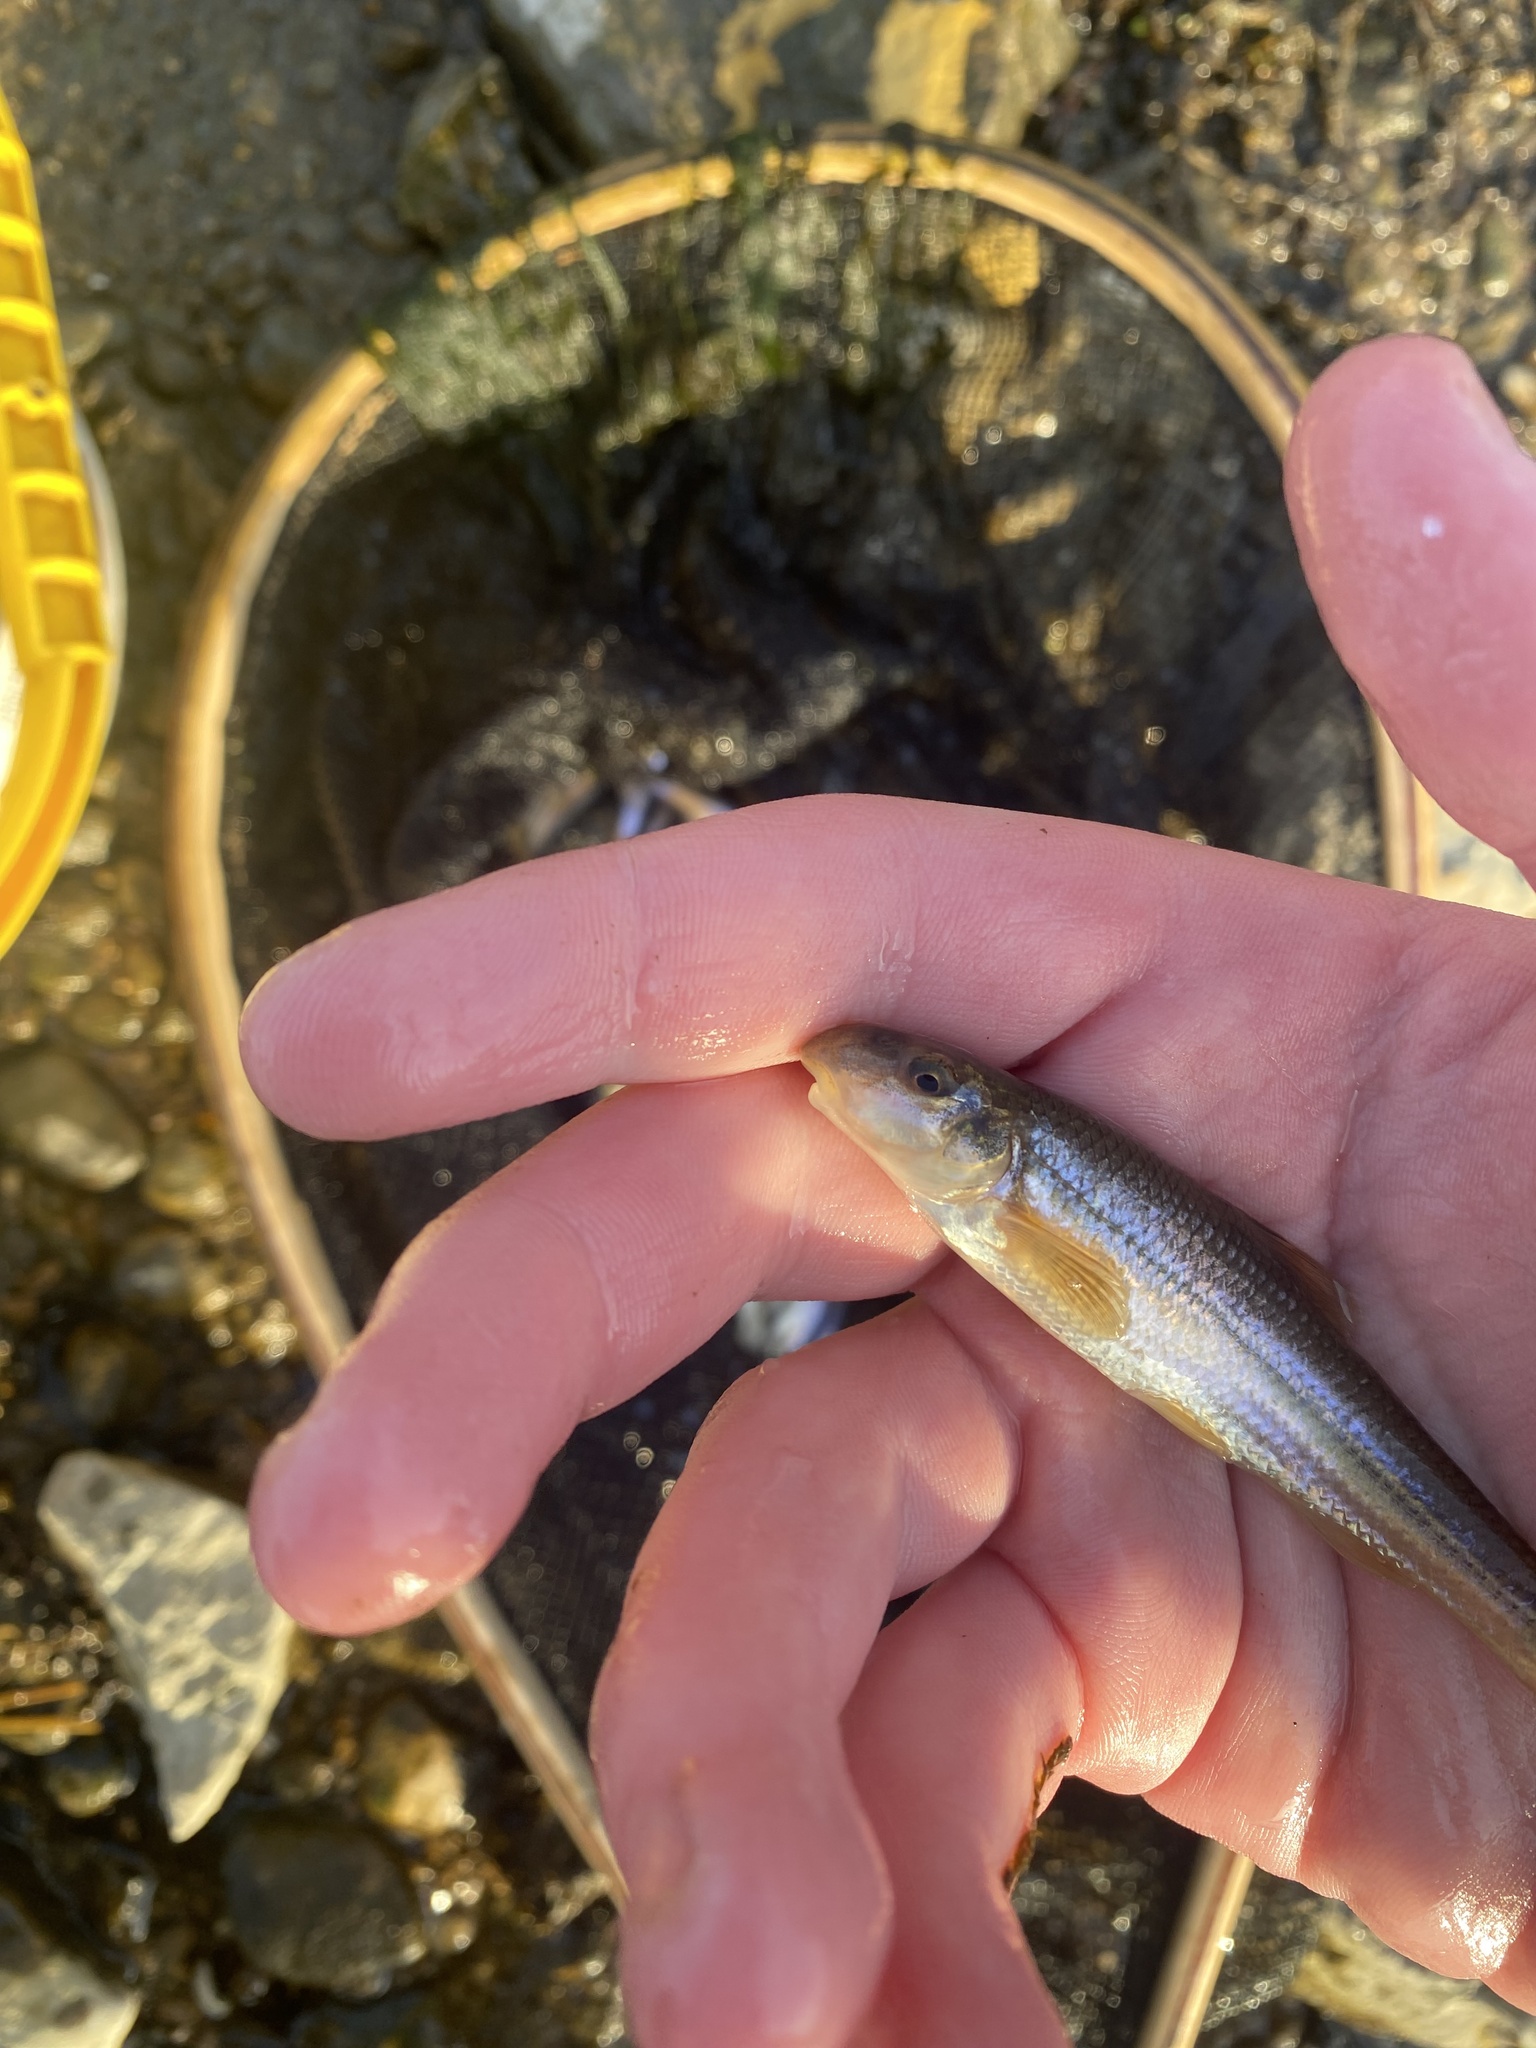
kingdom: Animalia
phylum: Chordata
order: Cypriniformes
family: Cyprinidae
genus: Phenacobius
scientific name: Phenacobius mirabilis
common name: Suckermouth minnow
